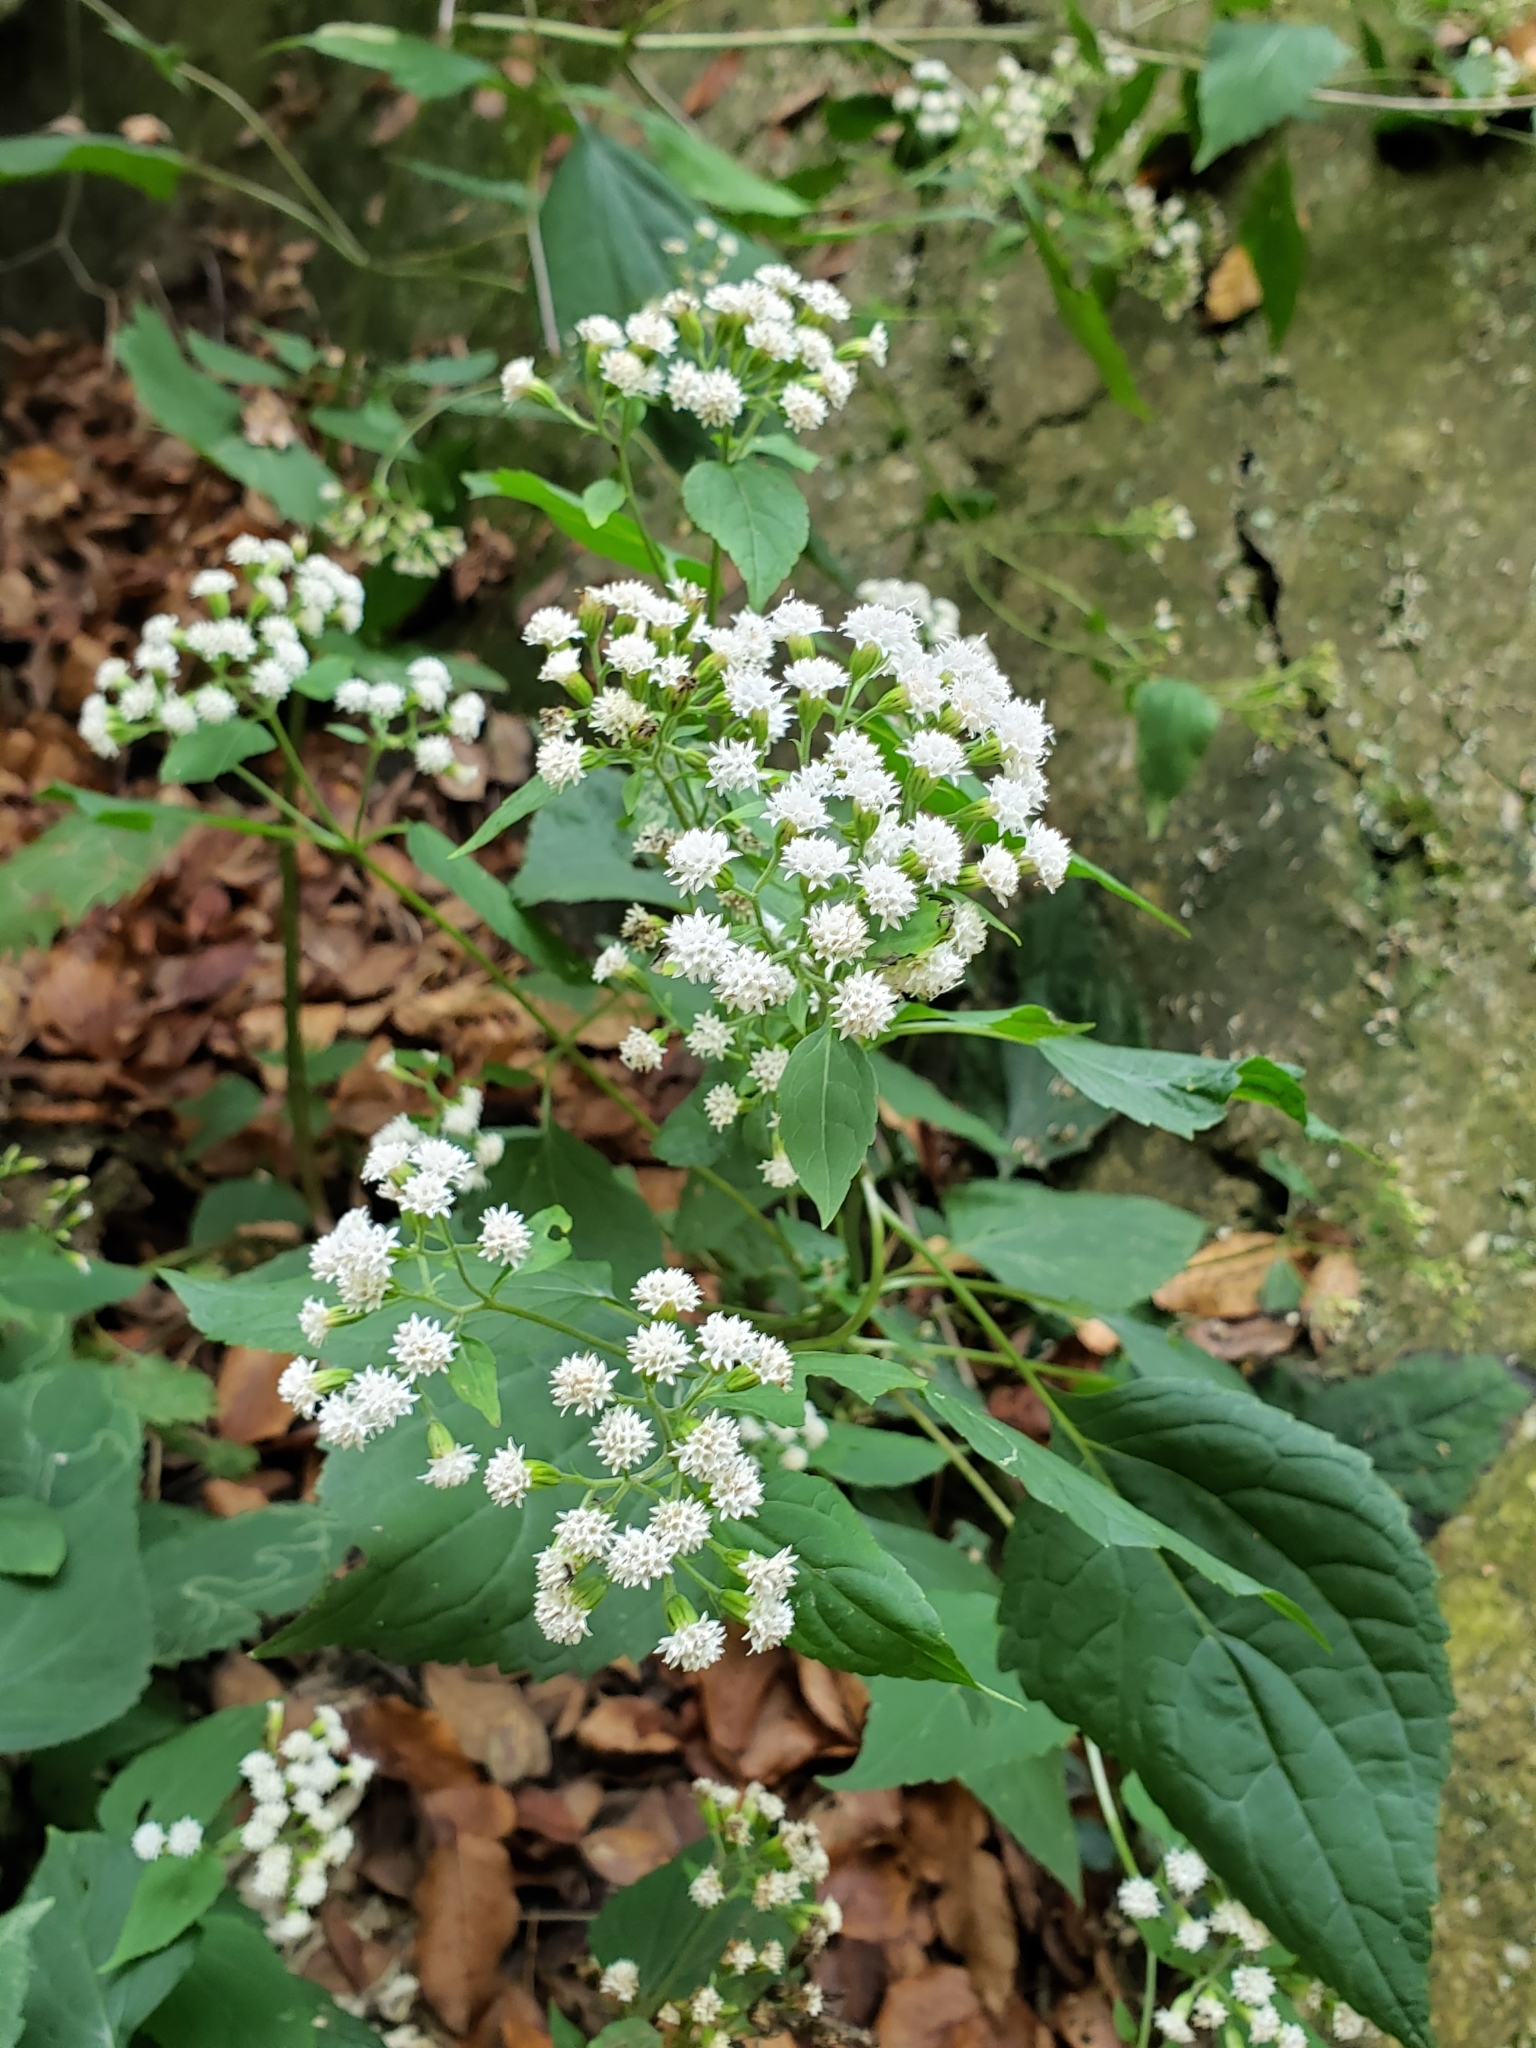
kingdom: Plantae
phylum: Tracheophyta
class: Magnoliopsida
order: Asterales
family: Asteraceae
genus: Ageratina
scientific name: Ageratina altissima
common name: White snakeroot
